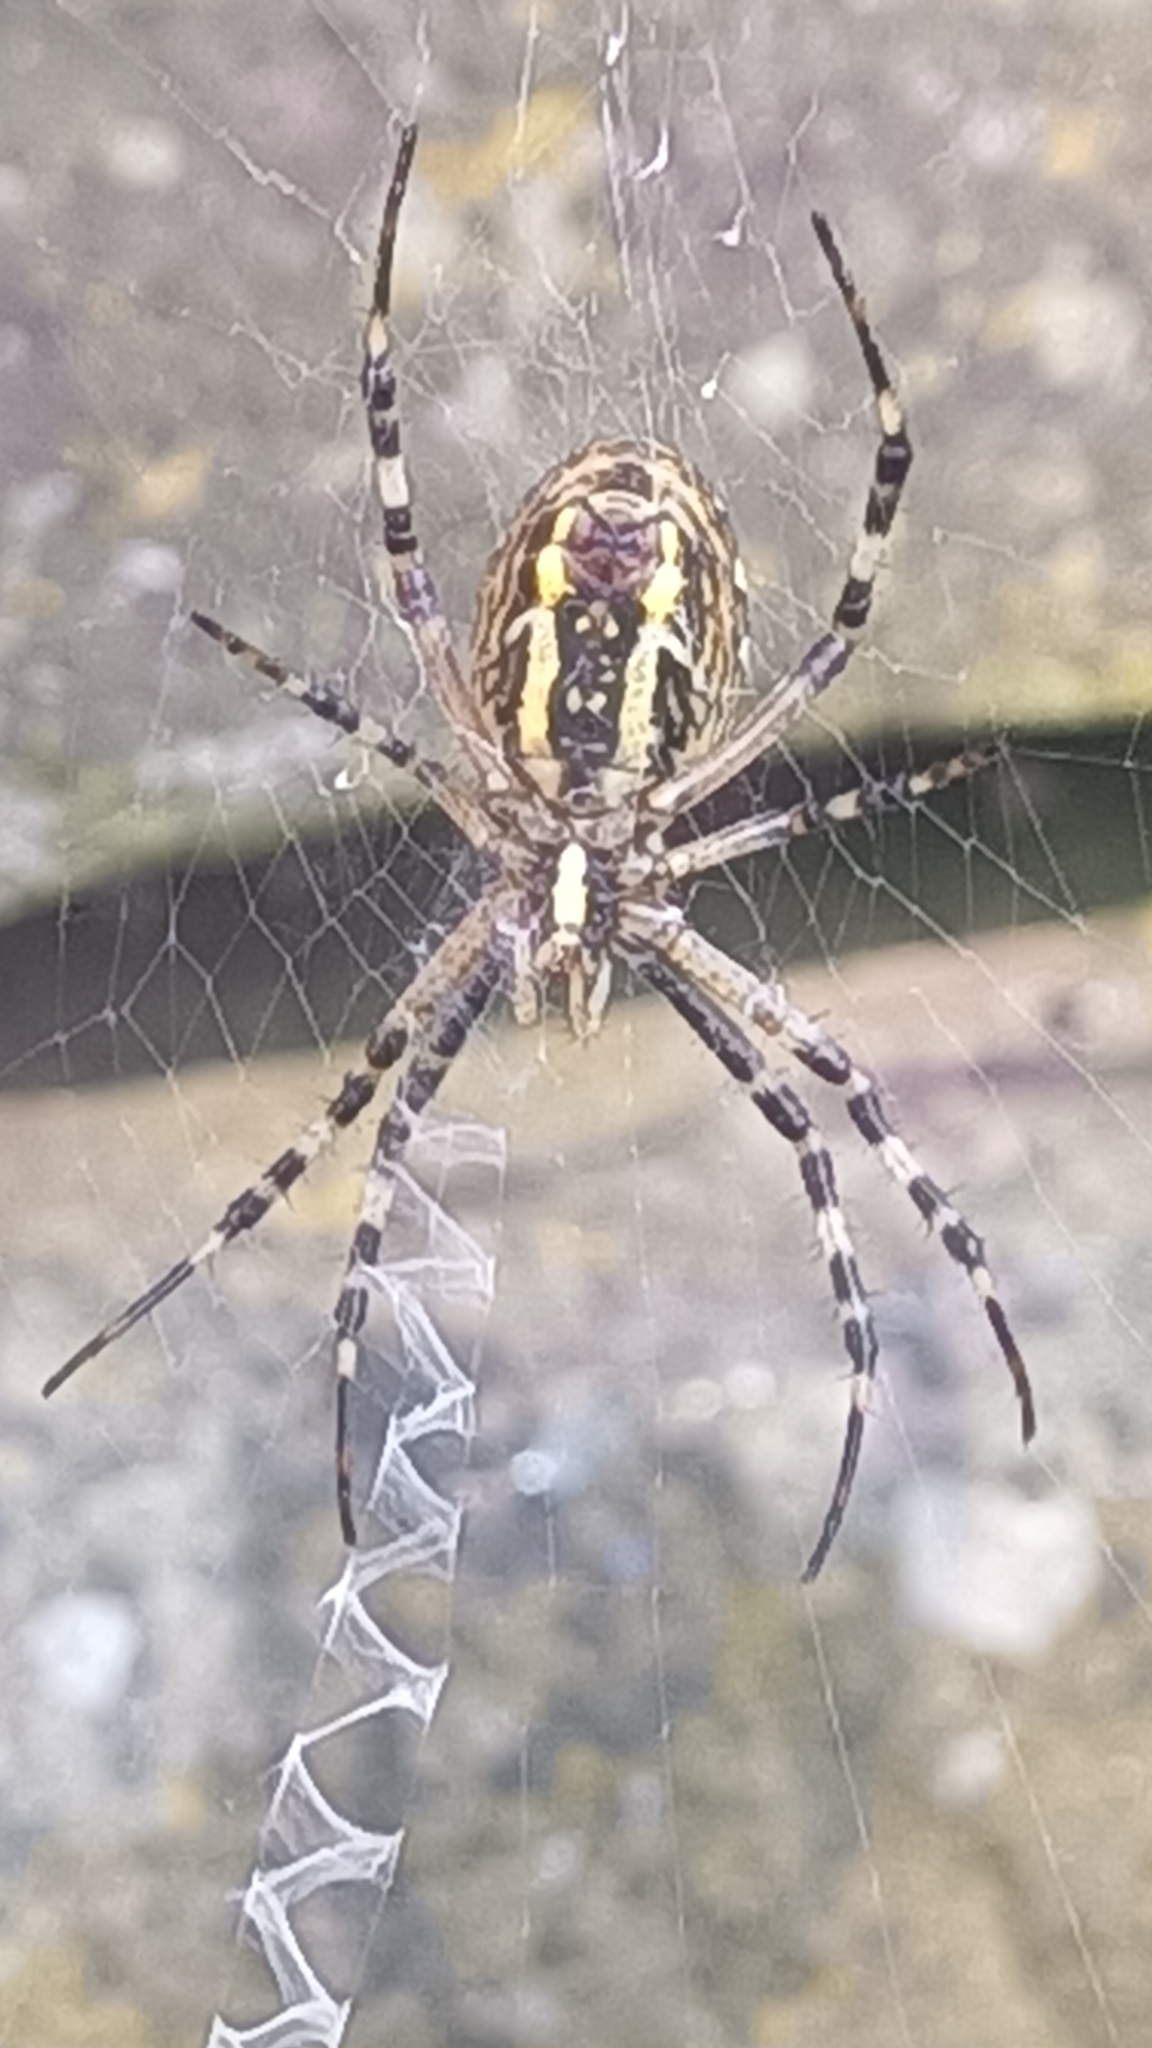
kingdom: Animalia
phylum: Arthropoda
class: Arachnida
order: Araneae
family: Araneidae
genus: Argiope
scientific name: Argiope bruennichi
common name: Wasp spider
